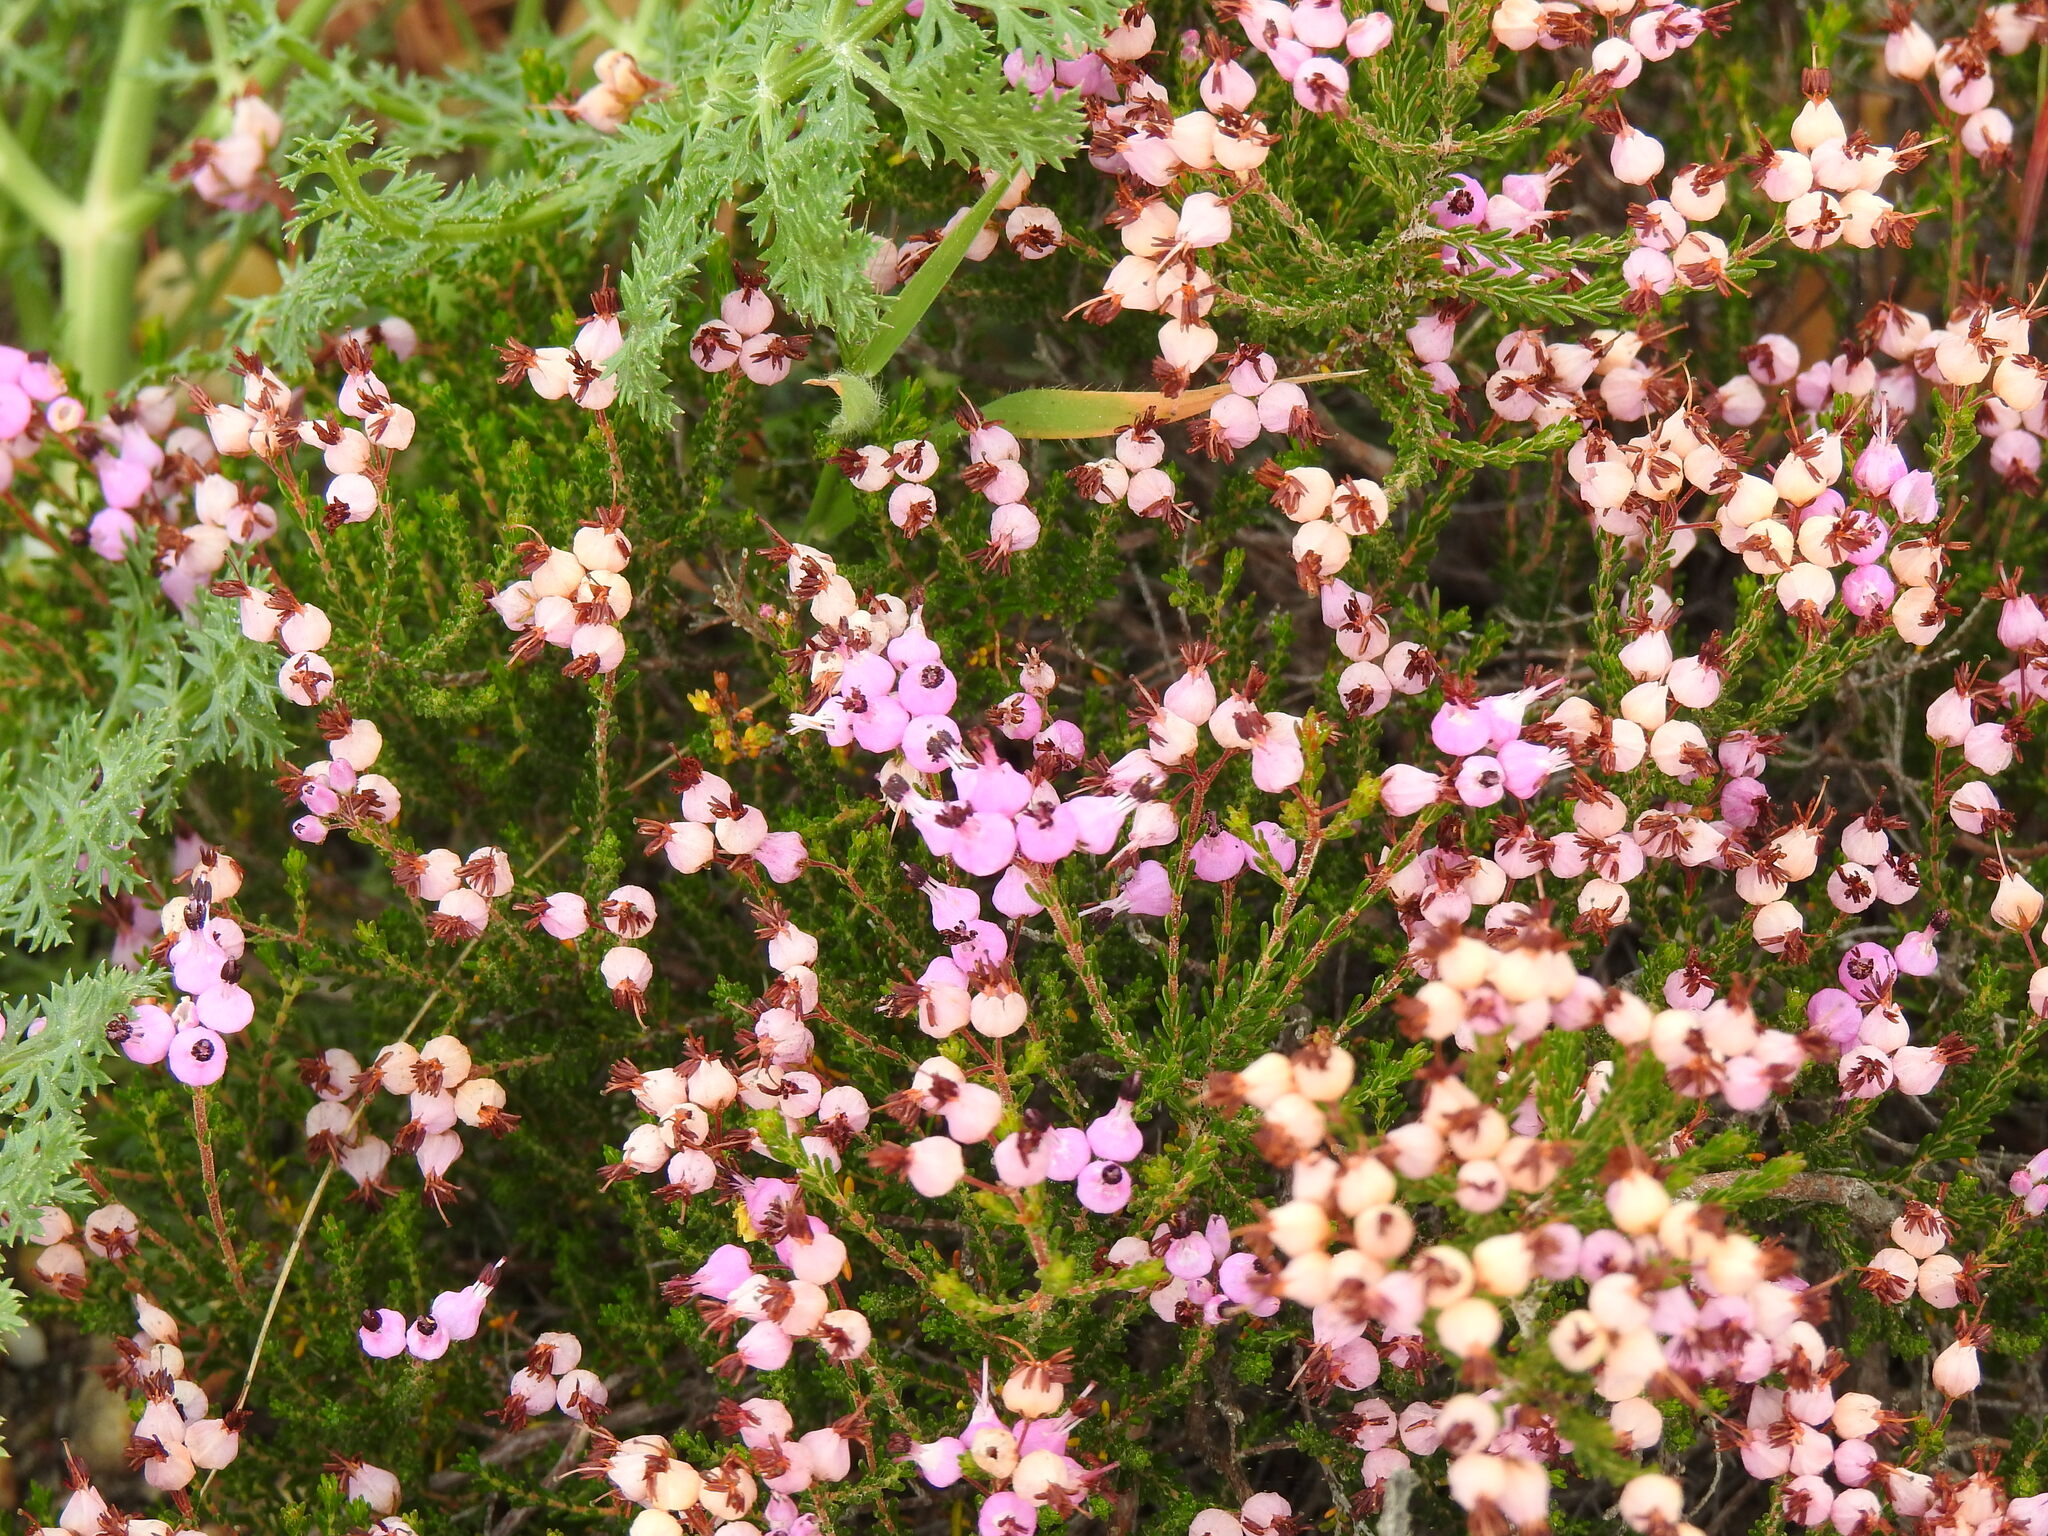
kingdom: Plantae
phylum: Tracheophyta
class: Magnoliopsida
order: Ericales
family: Ericaceae
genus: Erica
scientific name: Erica umbellata
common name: Dwarf spanish heath
